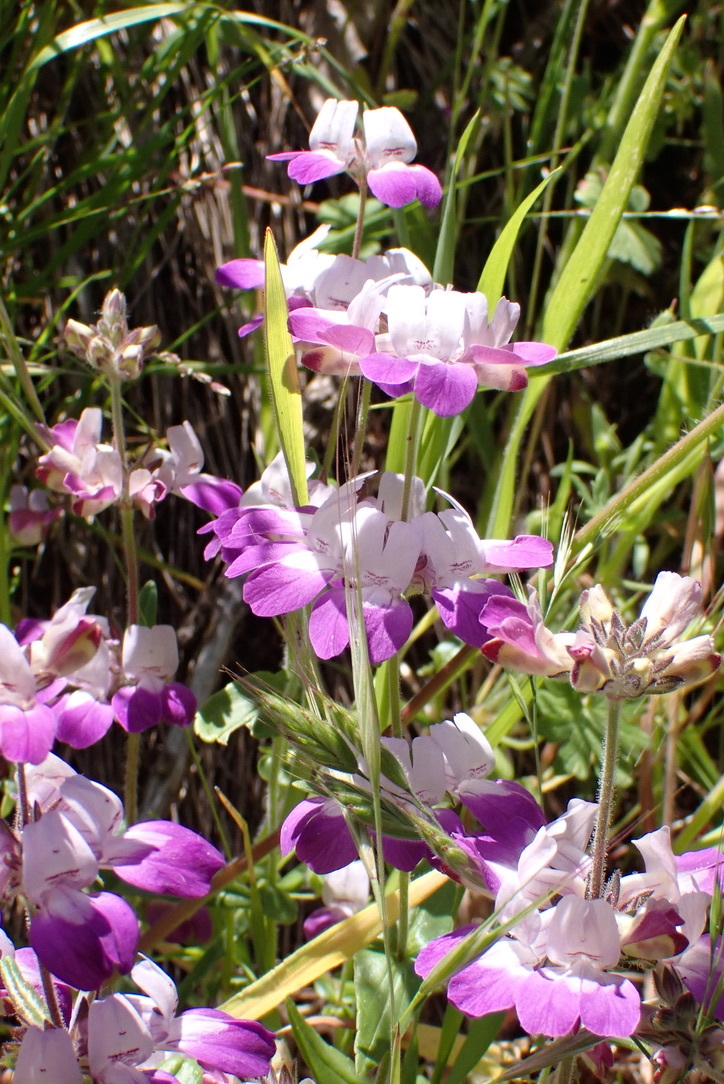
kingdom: Plantae
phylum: Tracheophyta
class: Magnoliopsida
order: Lamiales
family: Plantaginaceae
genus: Collinsia
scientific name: Collinsia heterophylla
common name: Chinese-houses
